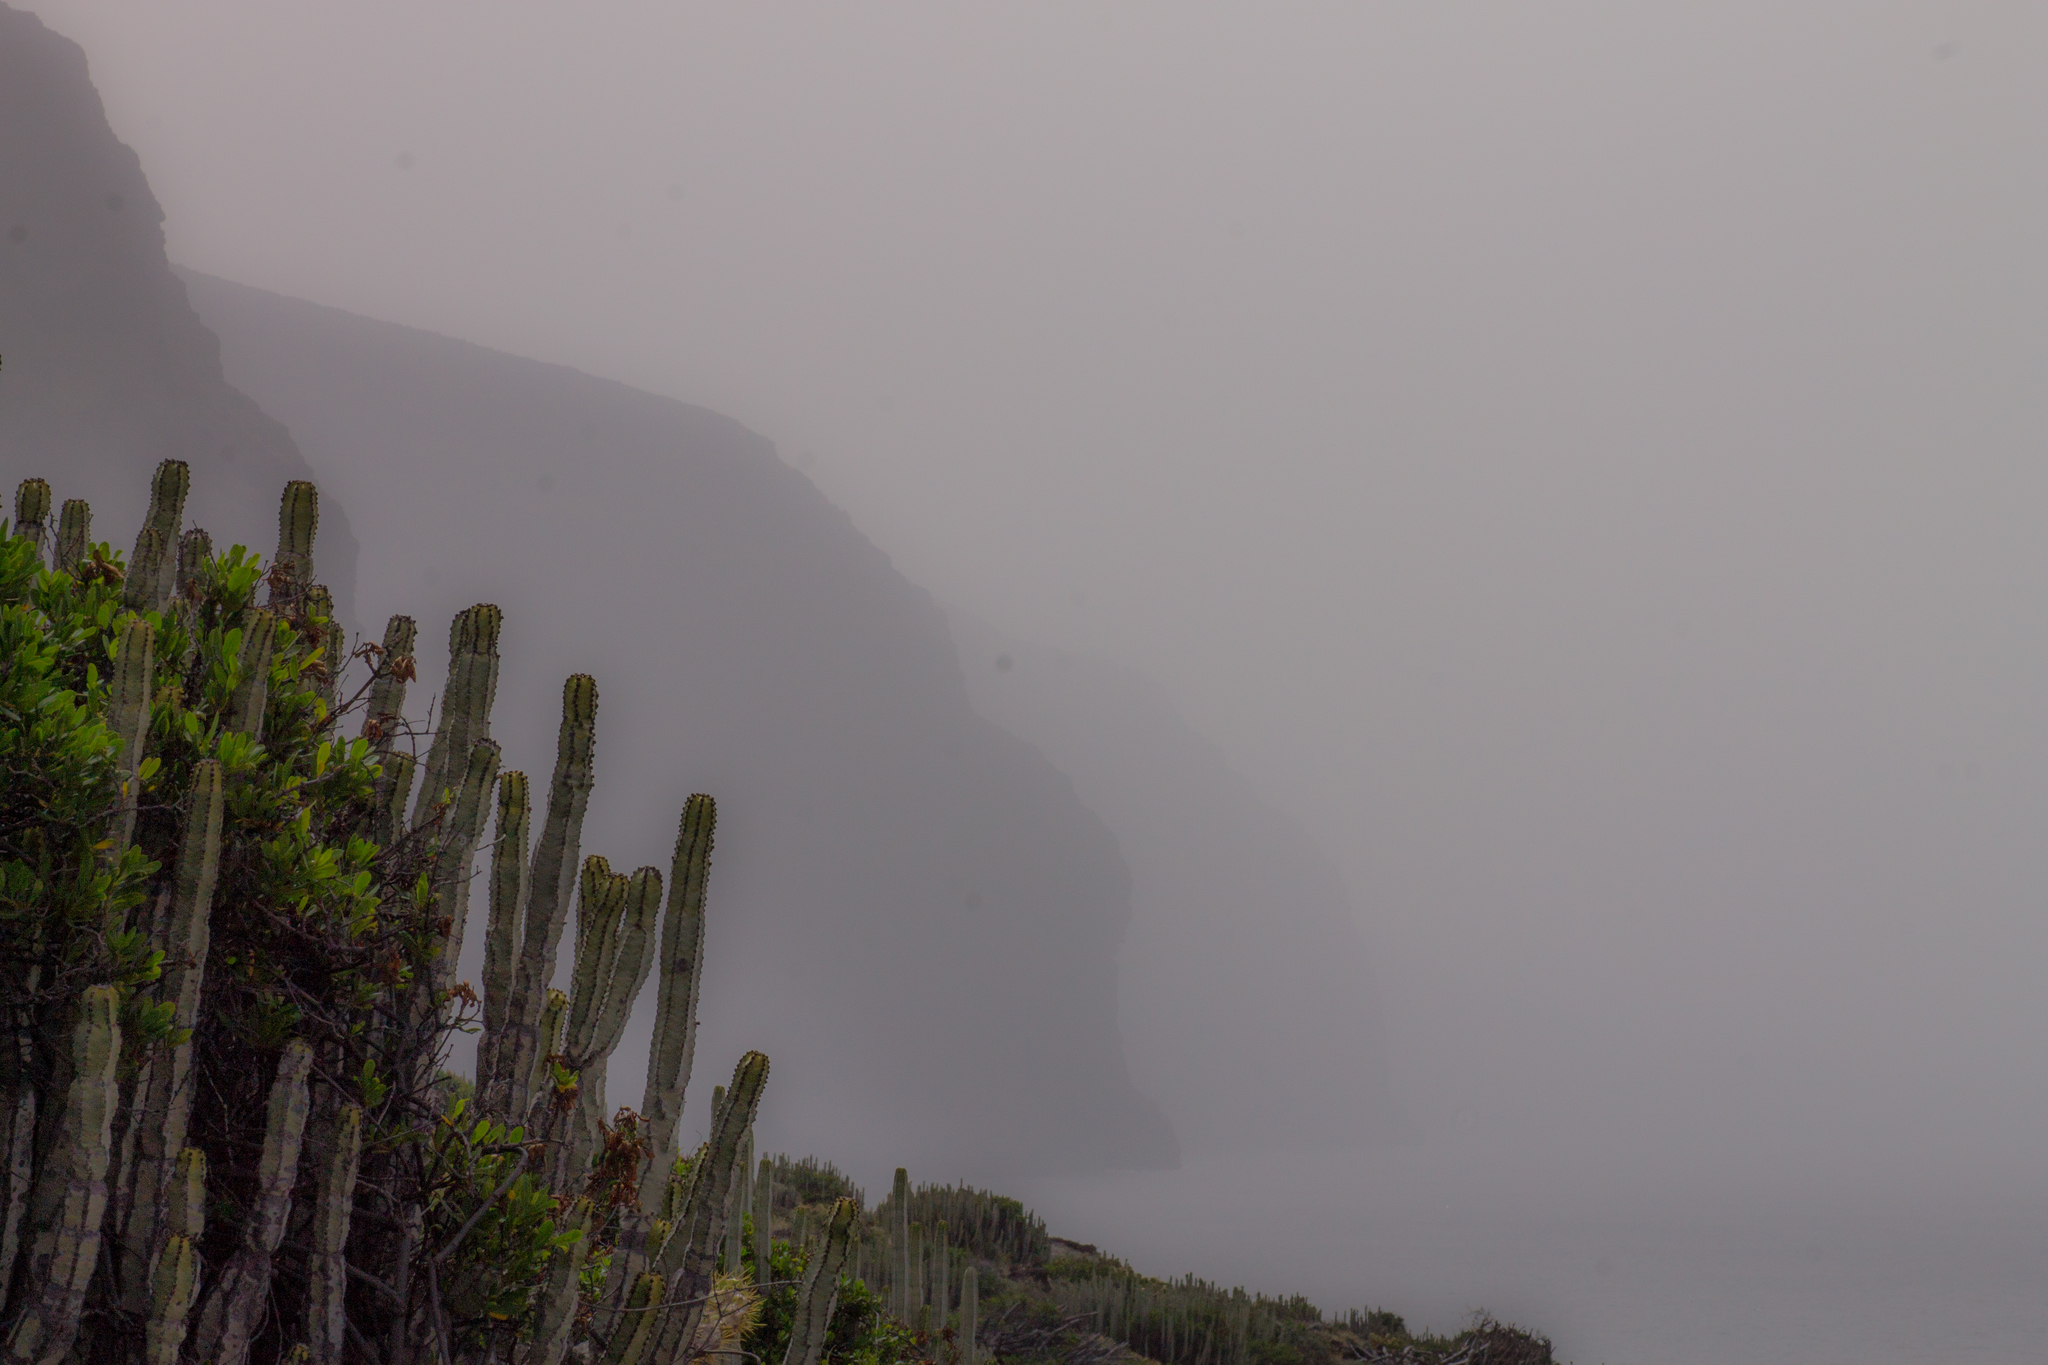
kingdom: Plantae
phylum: Tracheophyta
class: Magnoliopsida
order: Malpighiales
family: Euphorbiaceae
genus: Euphorbia
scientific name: Euphorbia canariensis
